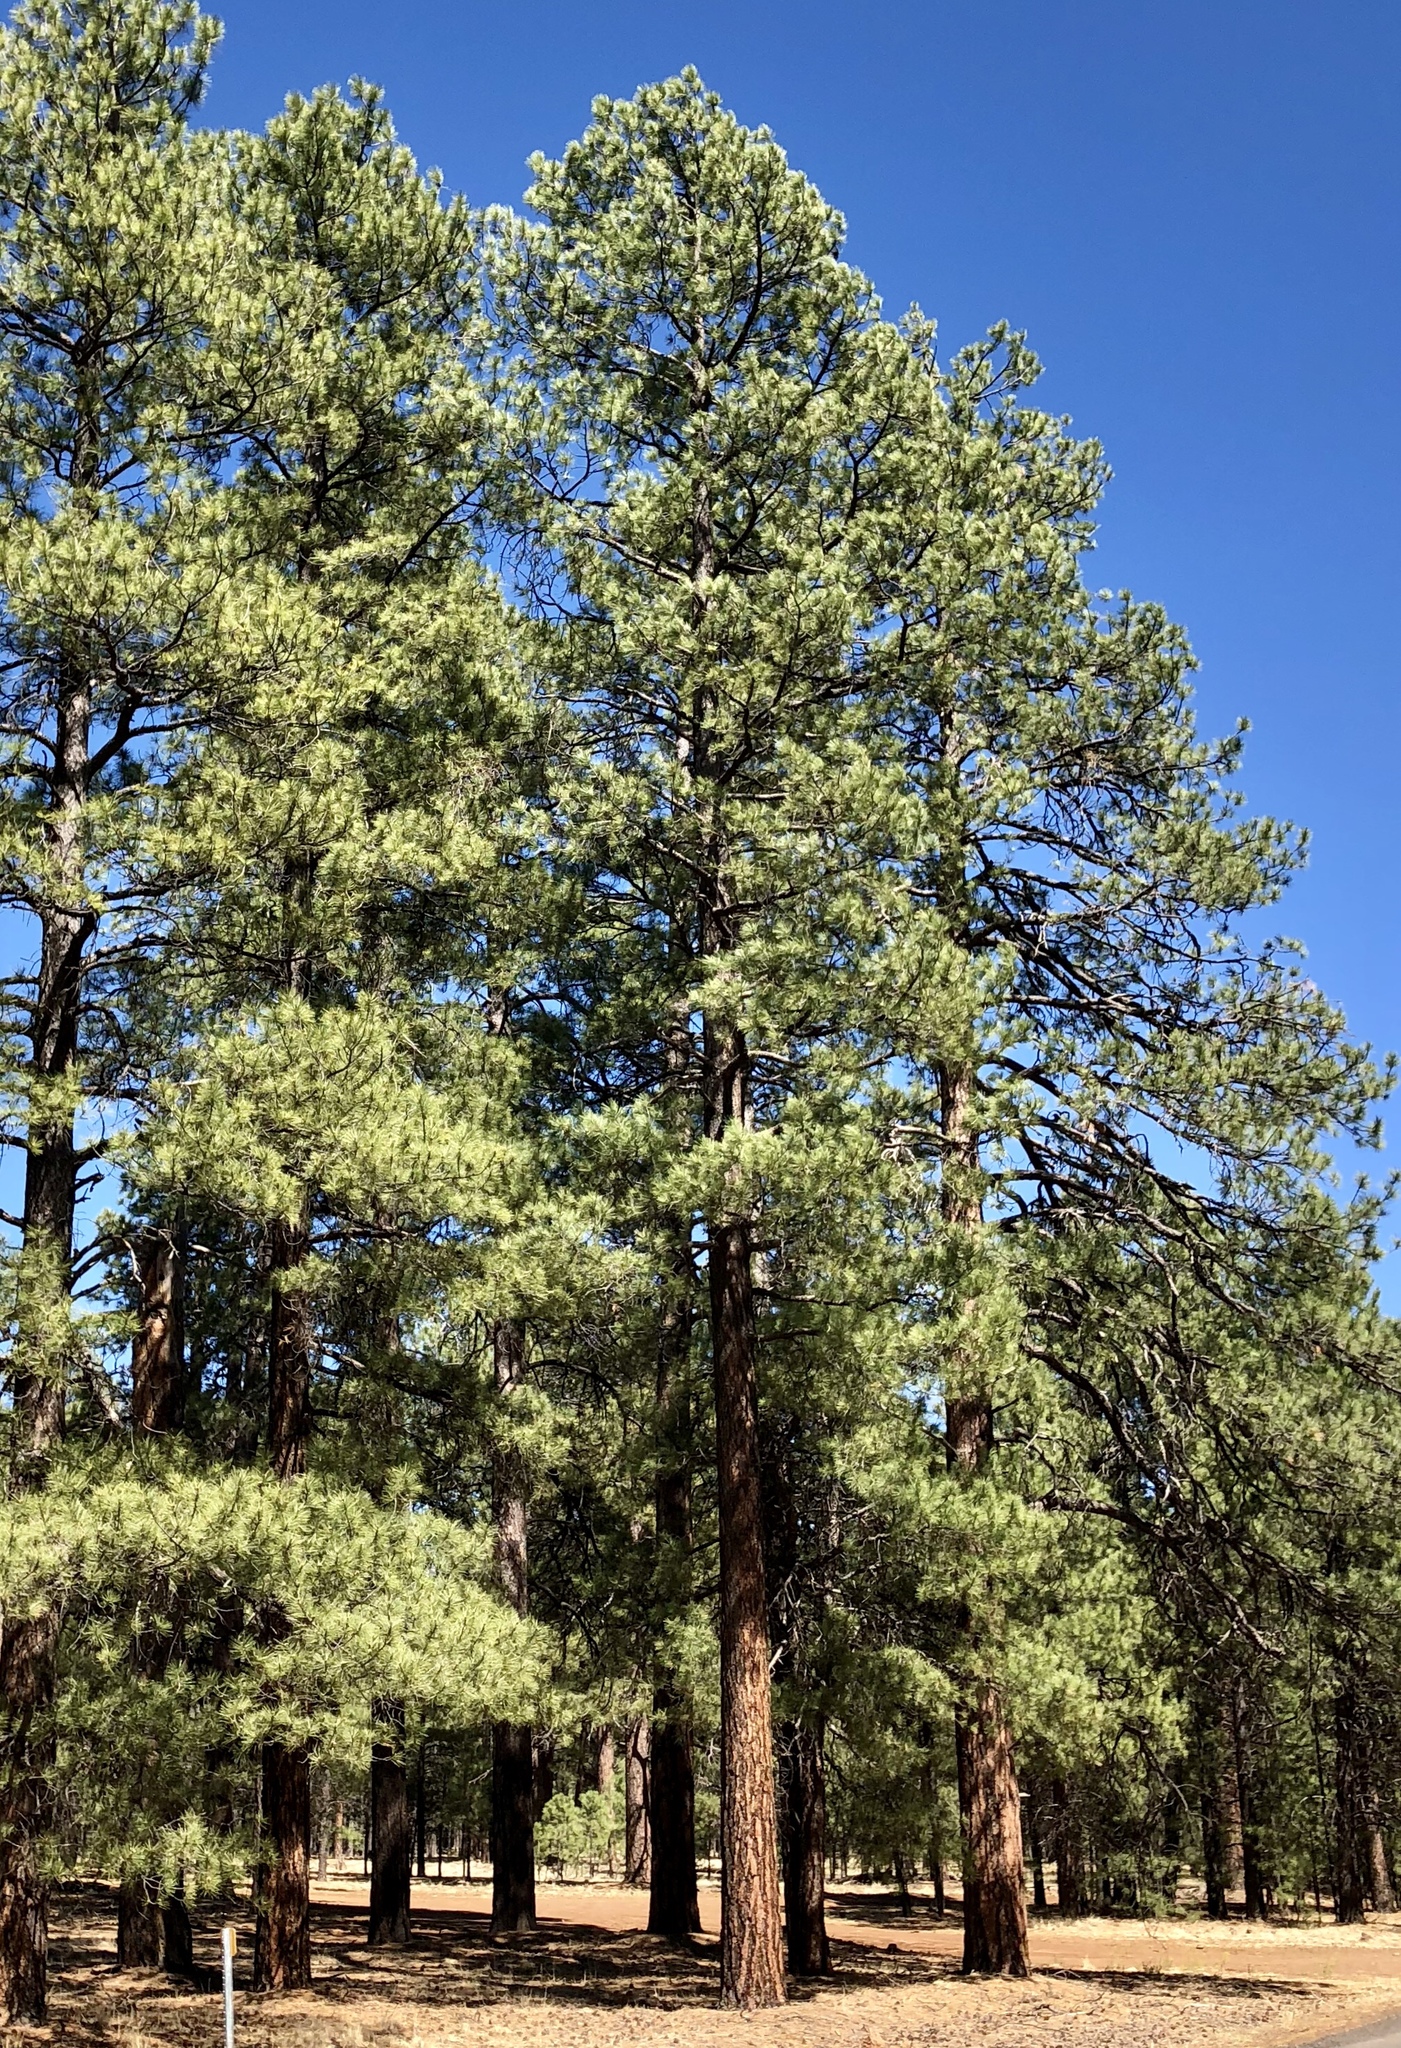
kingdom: Plantae
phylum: Tracheophyta
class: Pinopsida
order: Pinales
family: Pinaceae
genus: Pinus
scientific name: Pinus ponderosa
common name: Western yellow-pine
